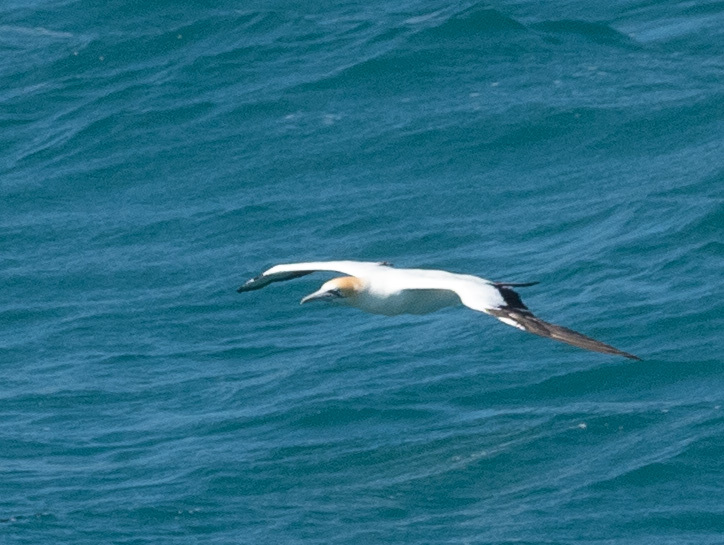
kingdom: Animalia
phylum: Chordata
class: Aves
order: Suliformes
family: Sulidae
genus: Morus
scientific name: Morus serrator
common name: Australasian gannet
